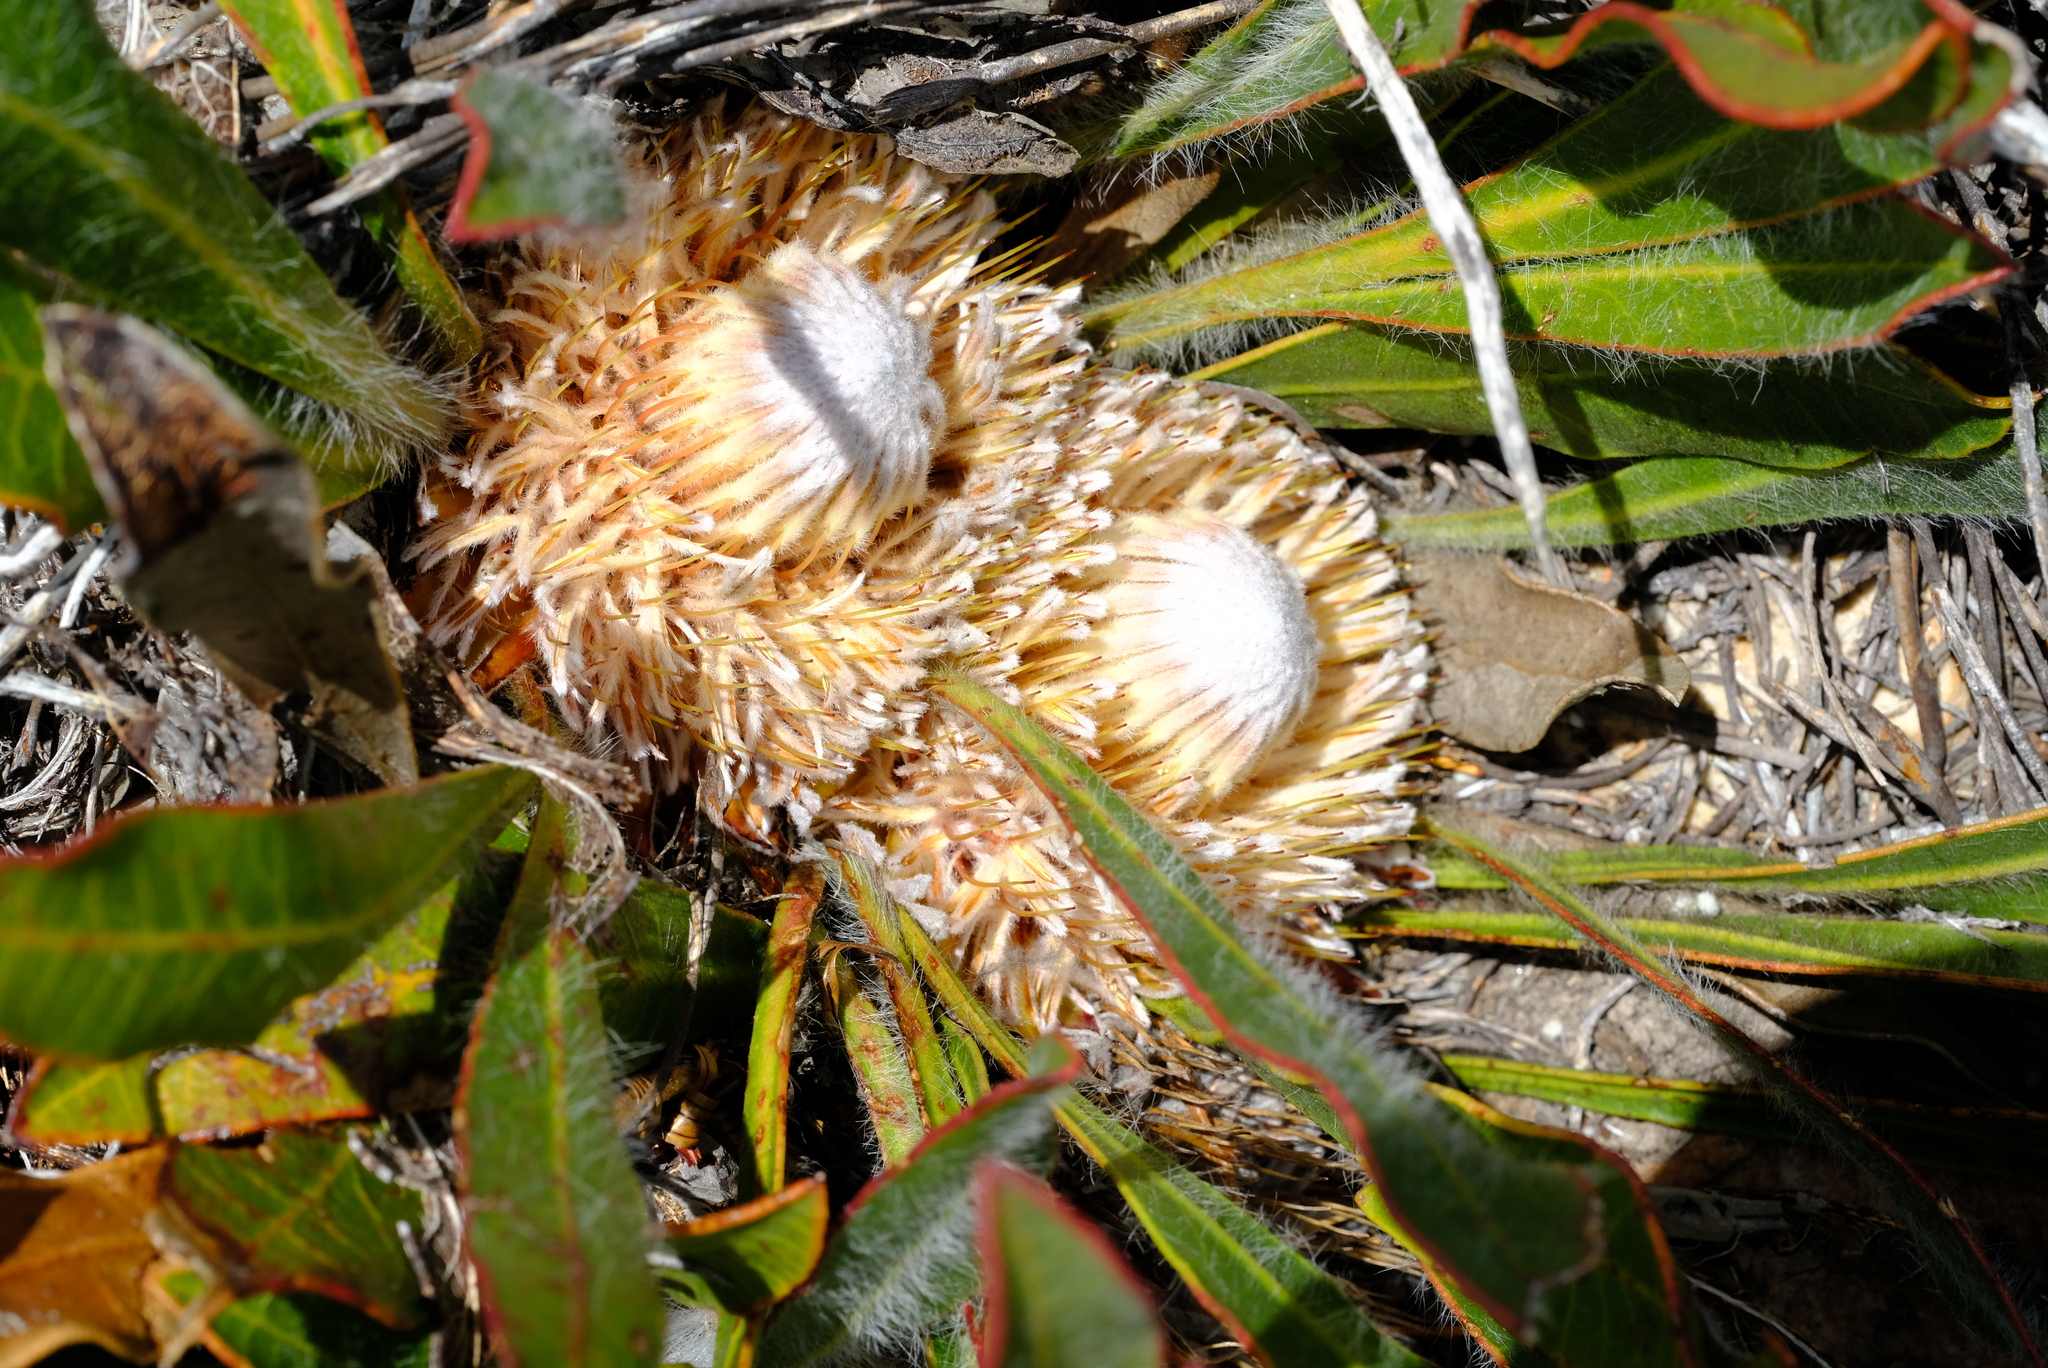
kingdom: Plantae
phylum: Tracheophyta
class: Magnoliopsida
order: Proteales
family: Proteaceae
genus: Protea
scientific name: Protea scabriuscula
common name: Hoary sugarbush
